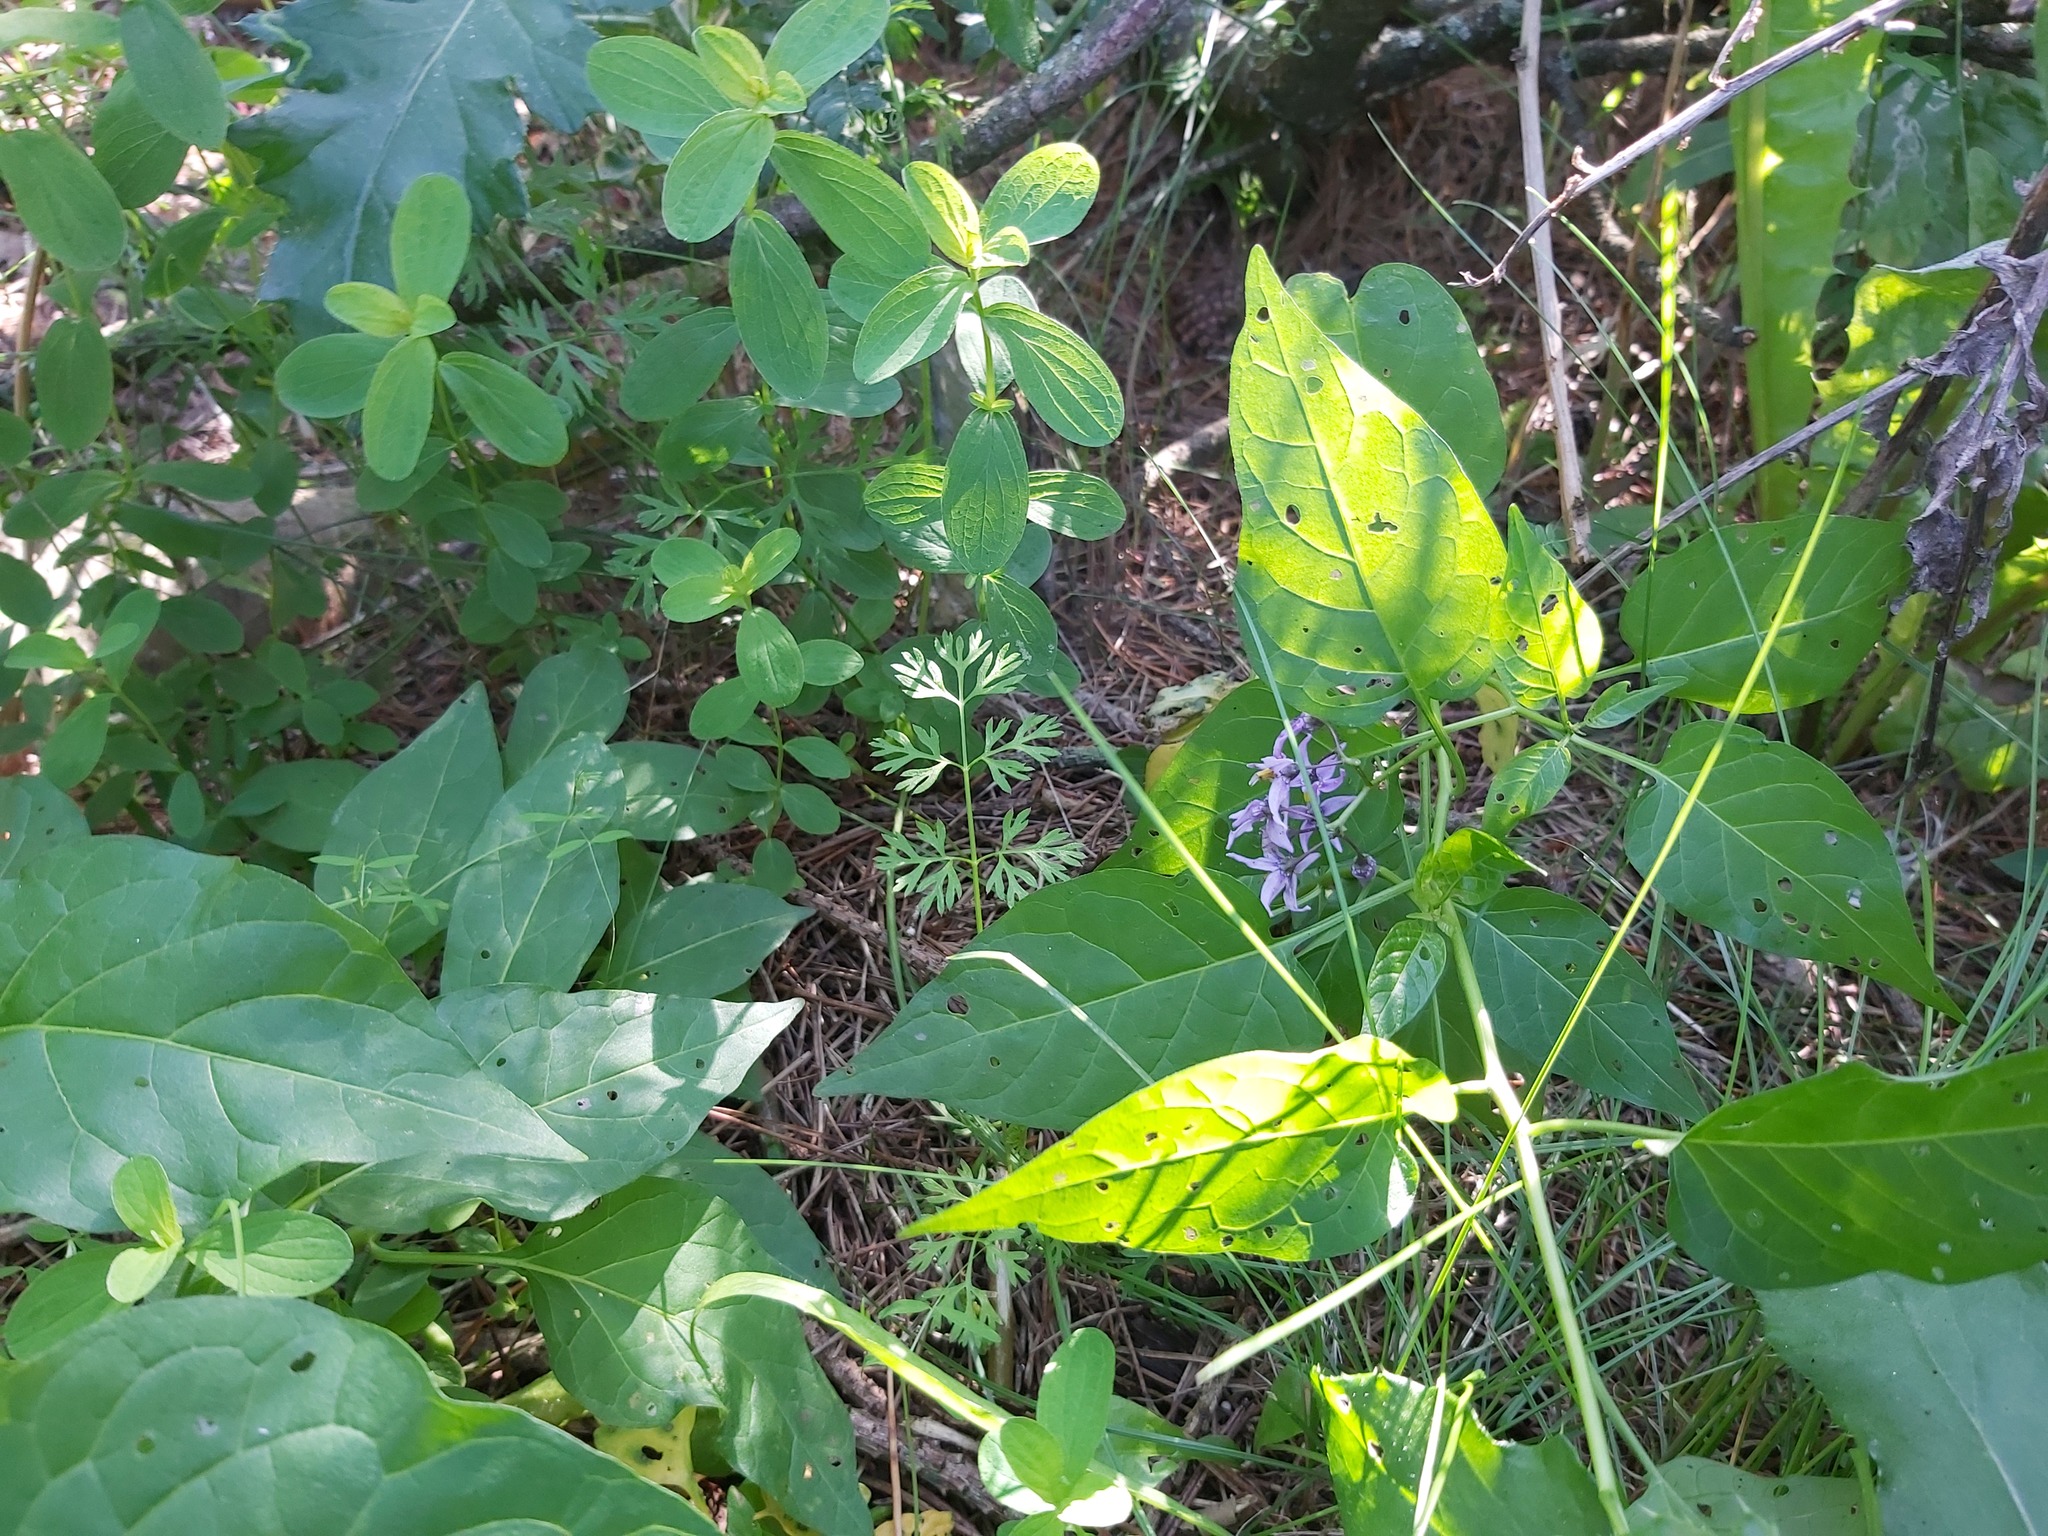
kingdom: Plantae
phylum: Tracheophyta
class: Magnoliopsida
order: Solanales
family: Solanaceae
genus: Solanum
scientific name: Solanum dulcamara
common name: Climbing nightshade
